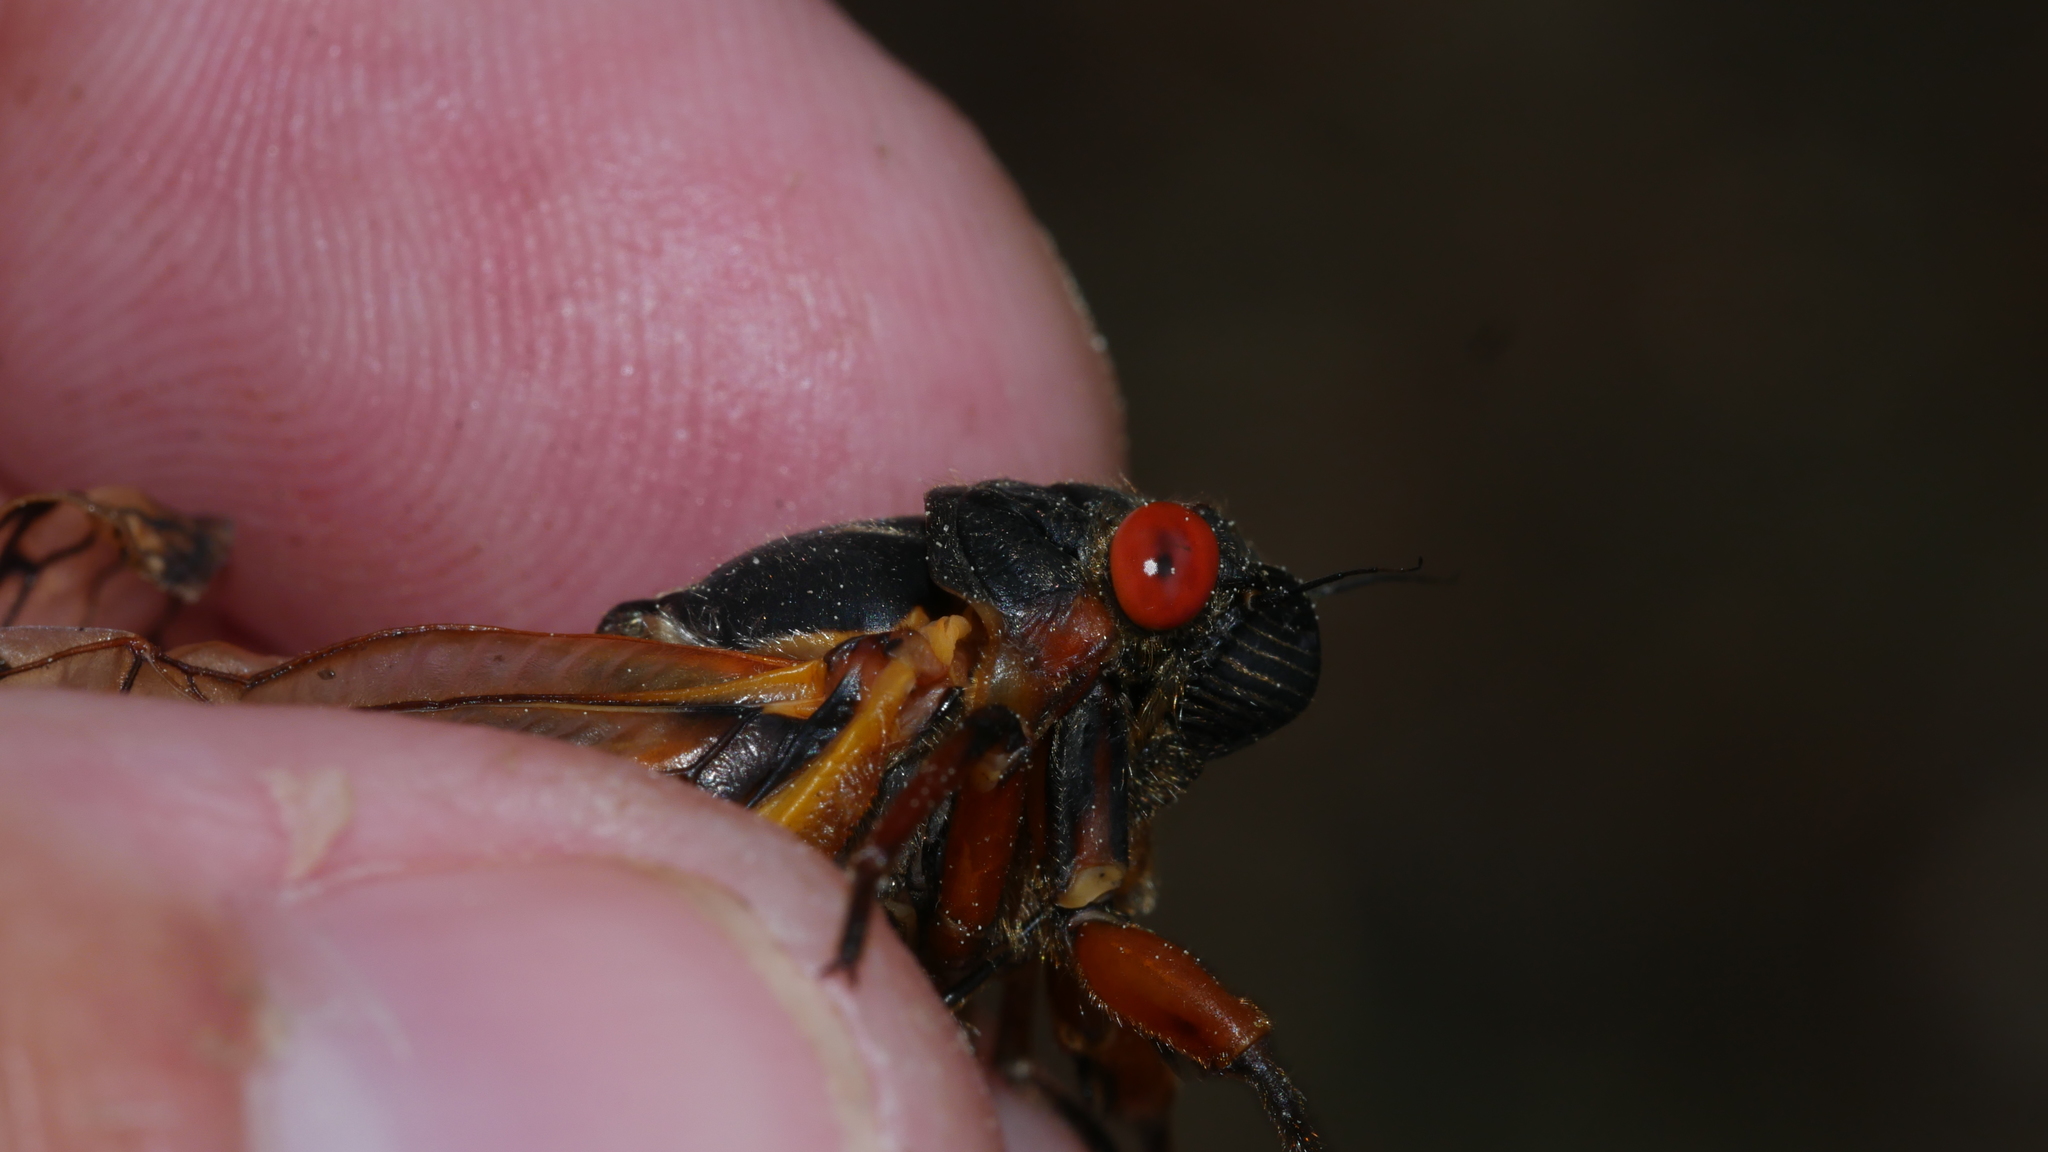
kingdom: Animalia
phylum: Arthropoda
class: Insecta
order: Hemiptera
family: Cicadidae
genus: Magicicada
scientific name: Magicicada septendecim
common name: Periodical cicada
